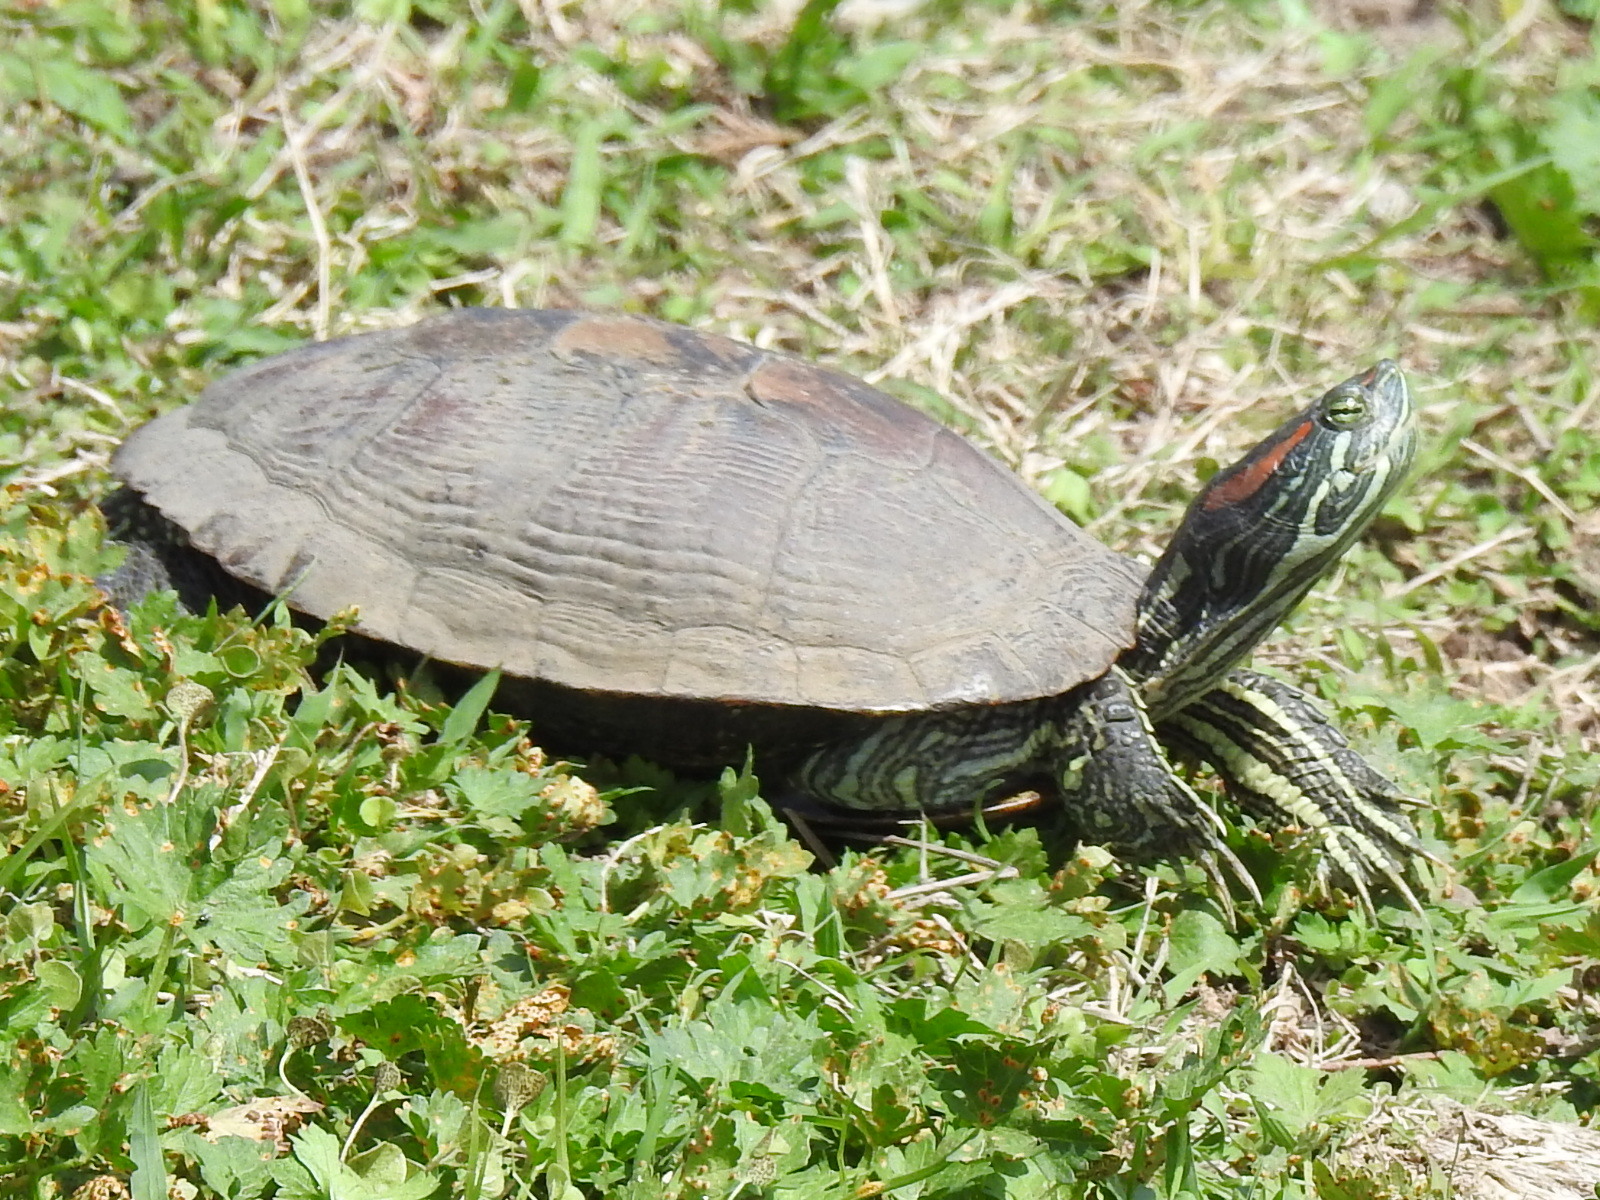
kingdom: Animalia
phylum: Chordata
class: Testudines
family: Emydidae
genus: Trachemys
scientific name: Trachemys scripta
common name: Slider
